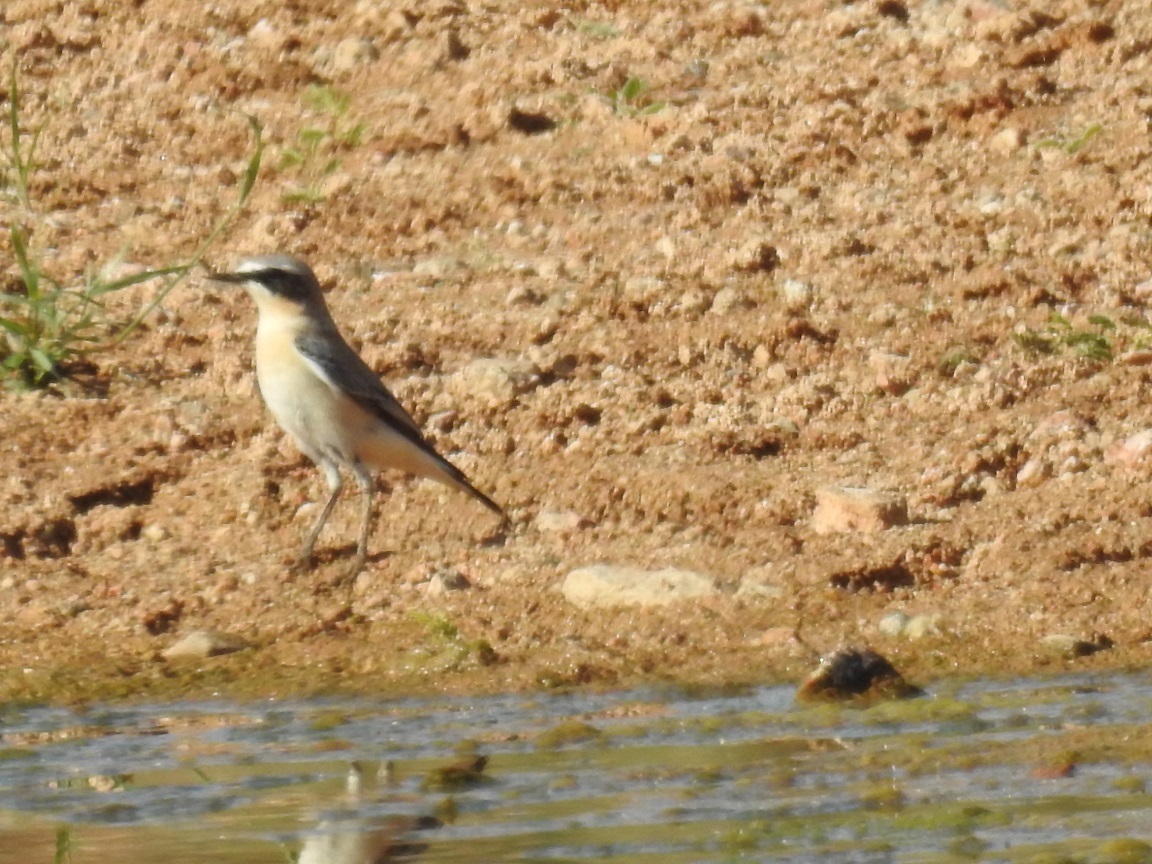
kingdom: Animalia
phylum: Chordata
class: Aves
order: Passeriformes
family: Muscicapidae
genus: Oenanthe
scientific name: Oenanthe oenanthe
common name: Northern wheatear
